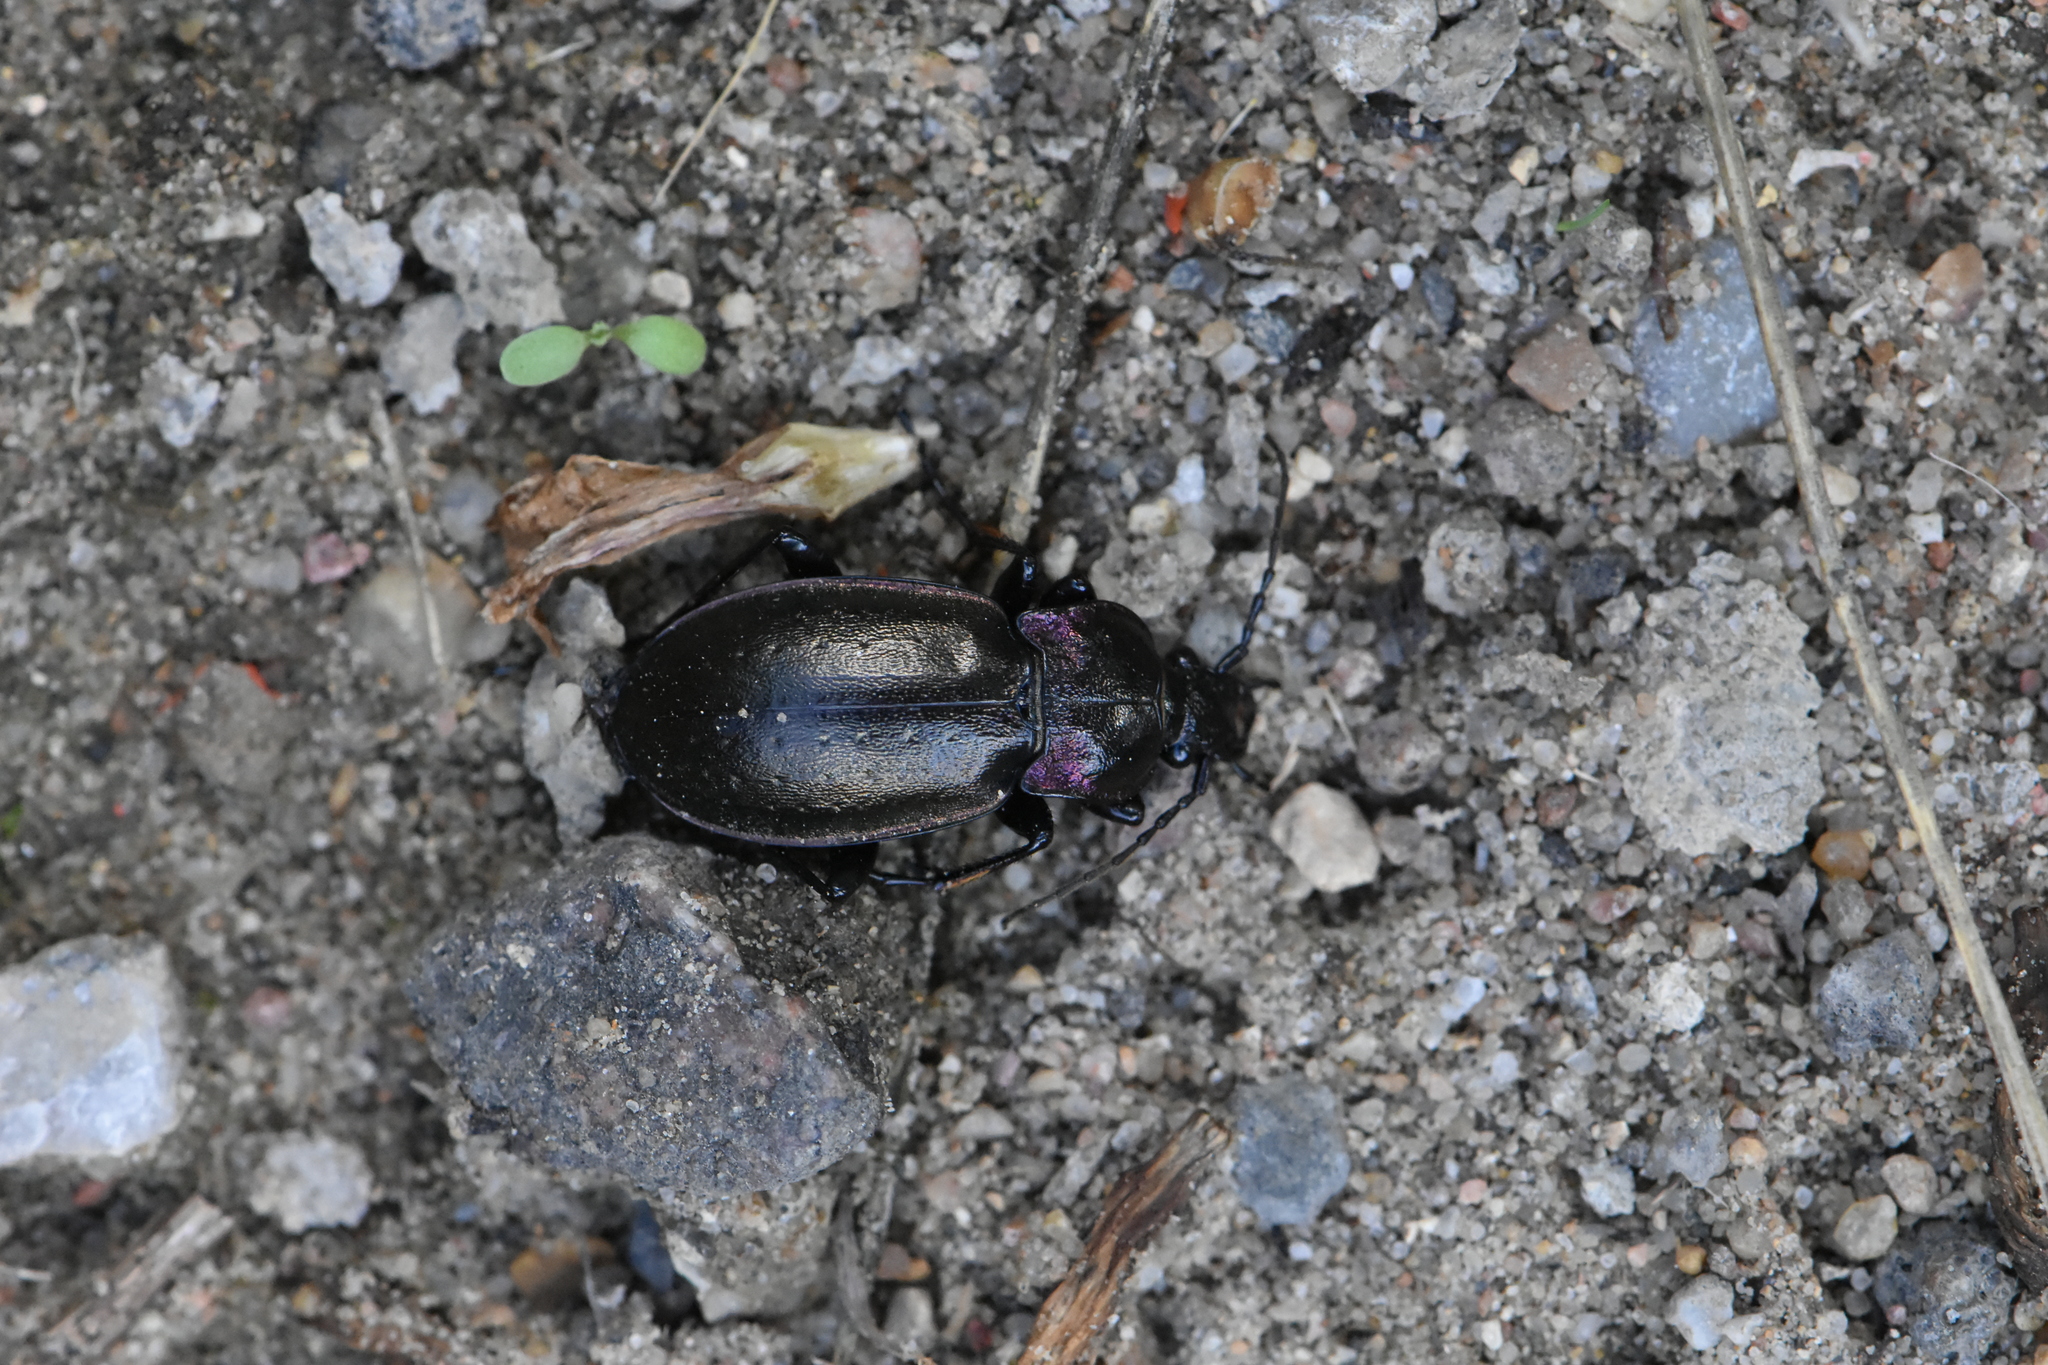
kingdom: Animalia
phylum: Arthropoda
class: Insecta
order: Coleoptera
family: Carabidae
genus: Carabus
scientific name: Carabus nemoralis
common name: European ground beetle
